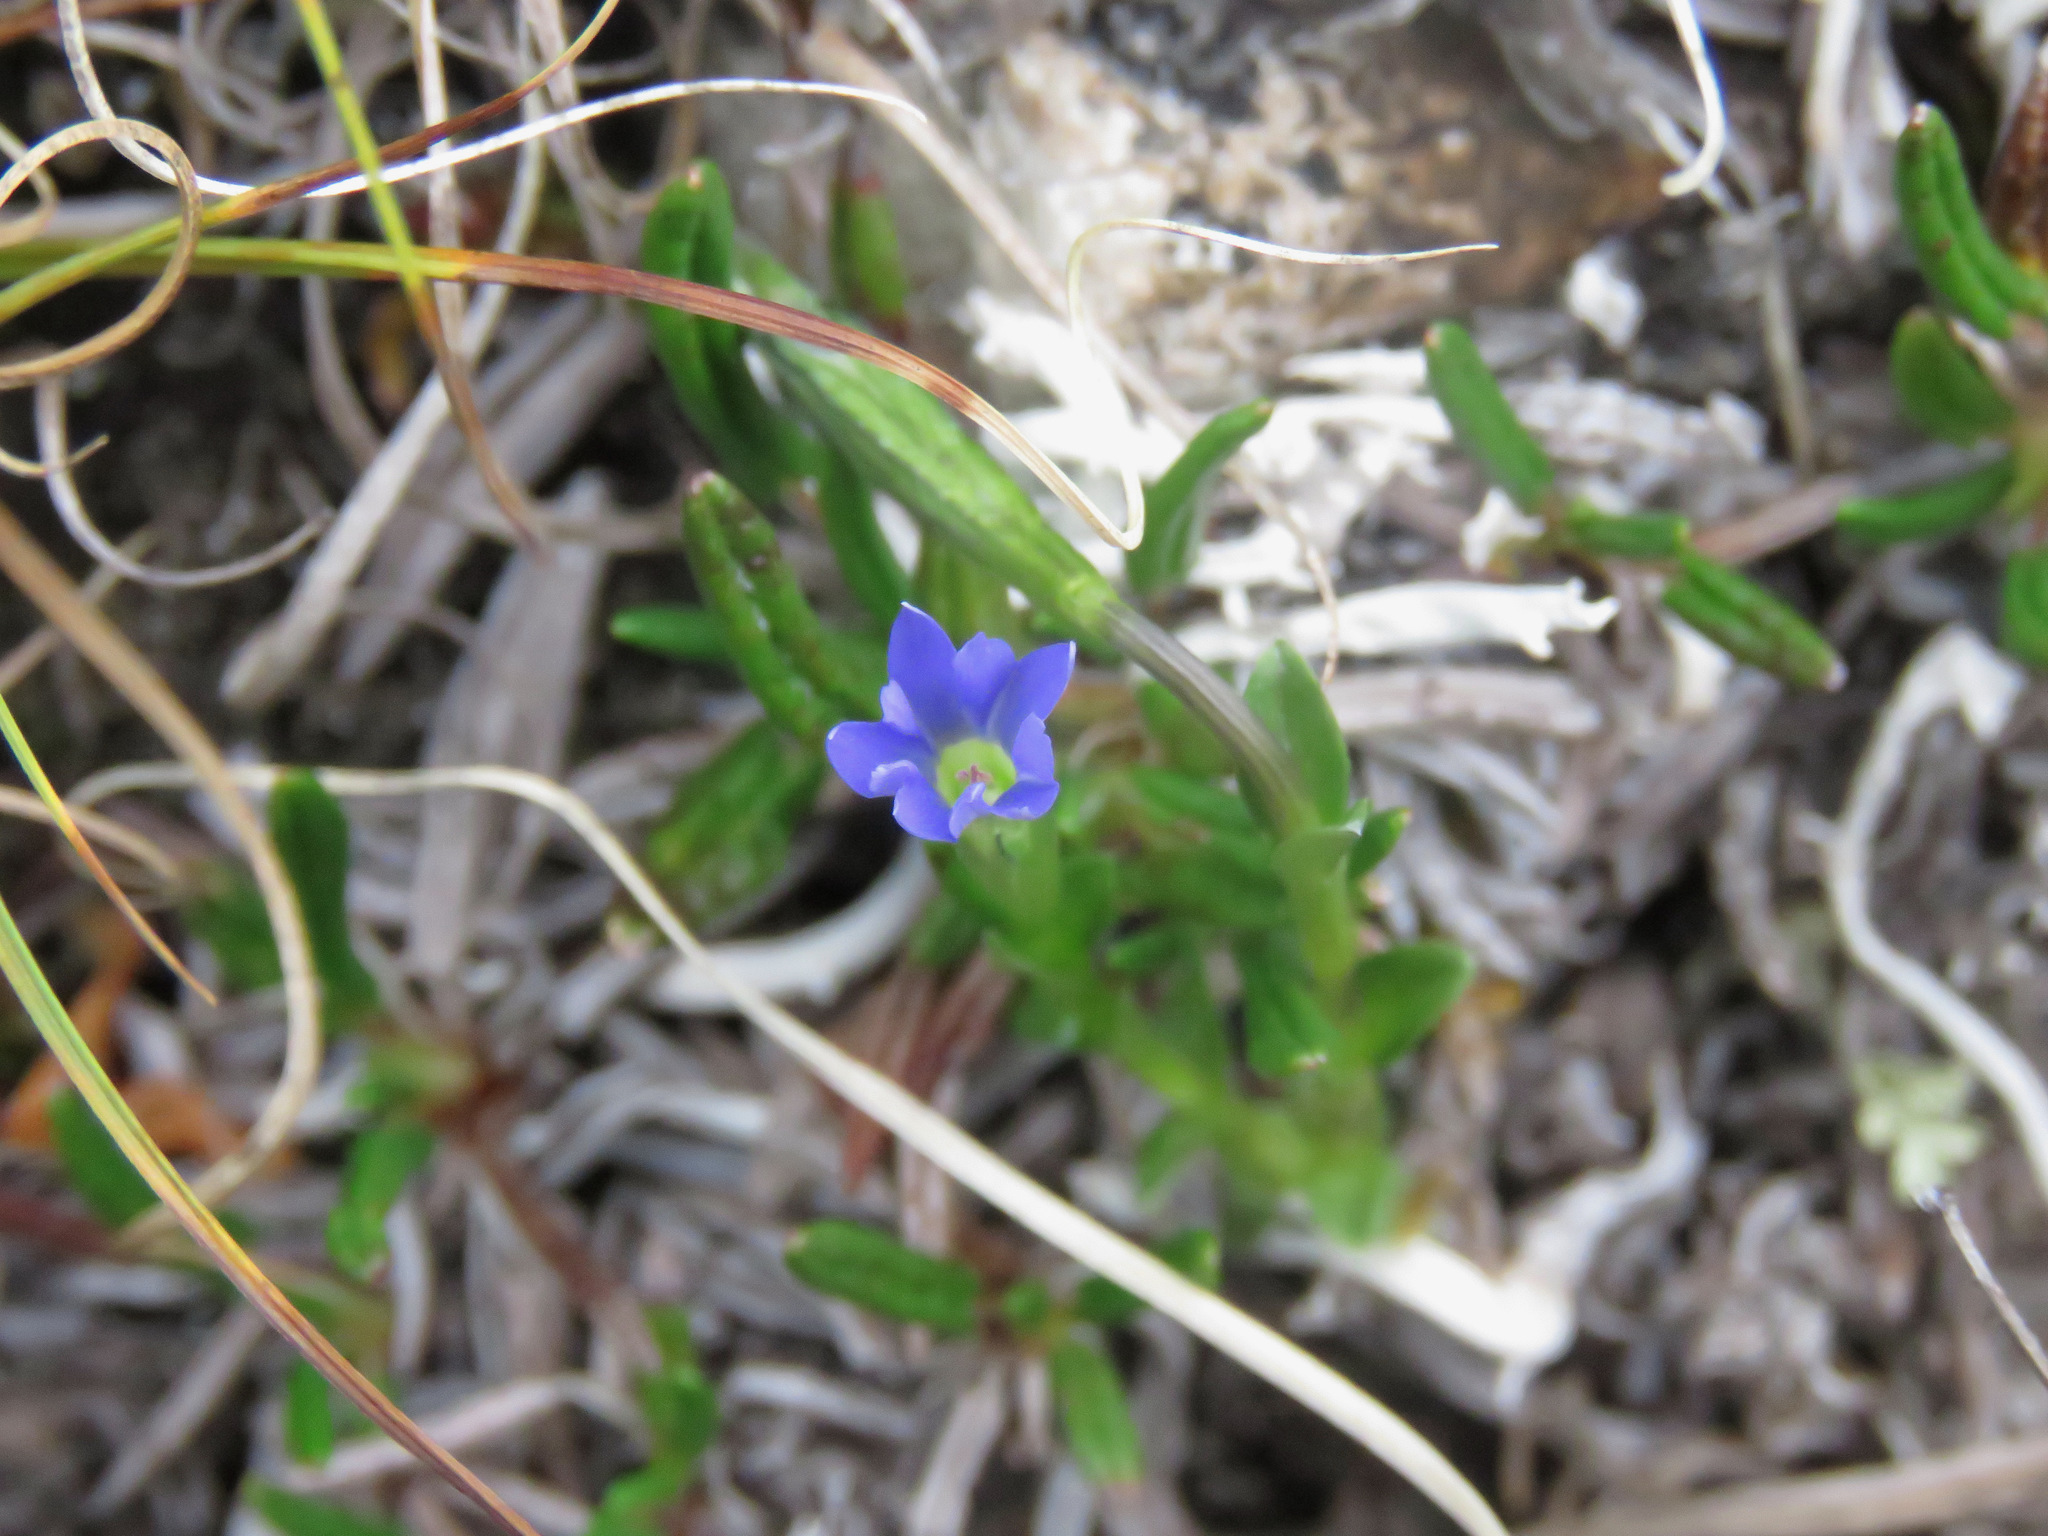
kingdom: Plantae
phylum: Tracheophyta
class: Magnoliopsida
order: Gentianales
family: Gentianaceae
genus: Gentiana
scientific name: Gentiana prostrata
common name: Moss gentian
